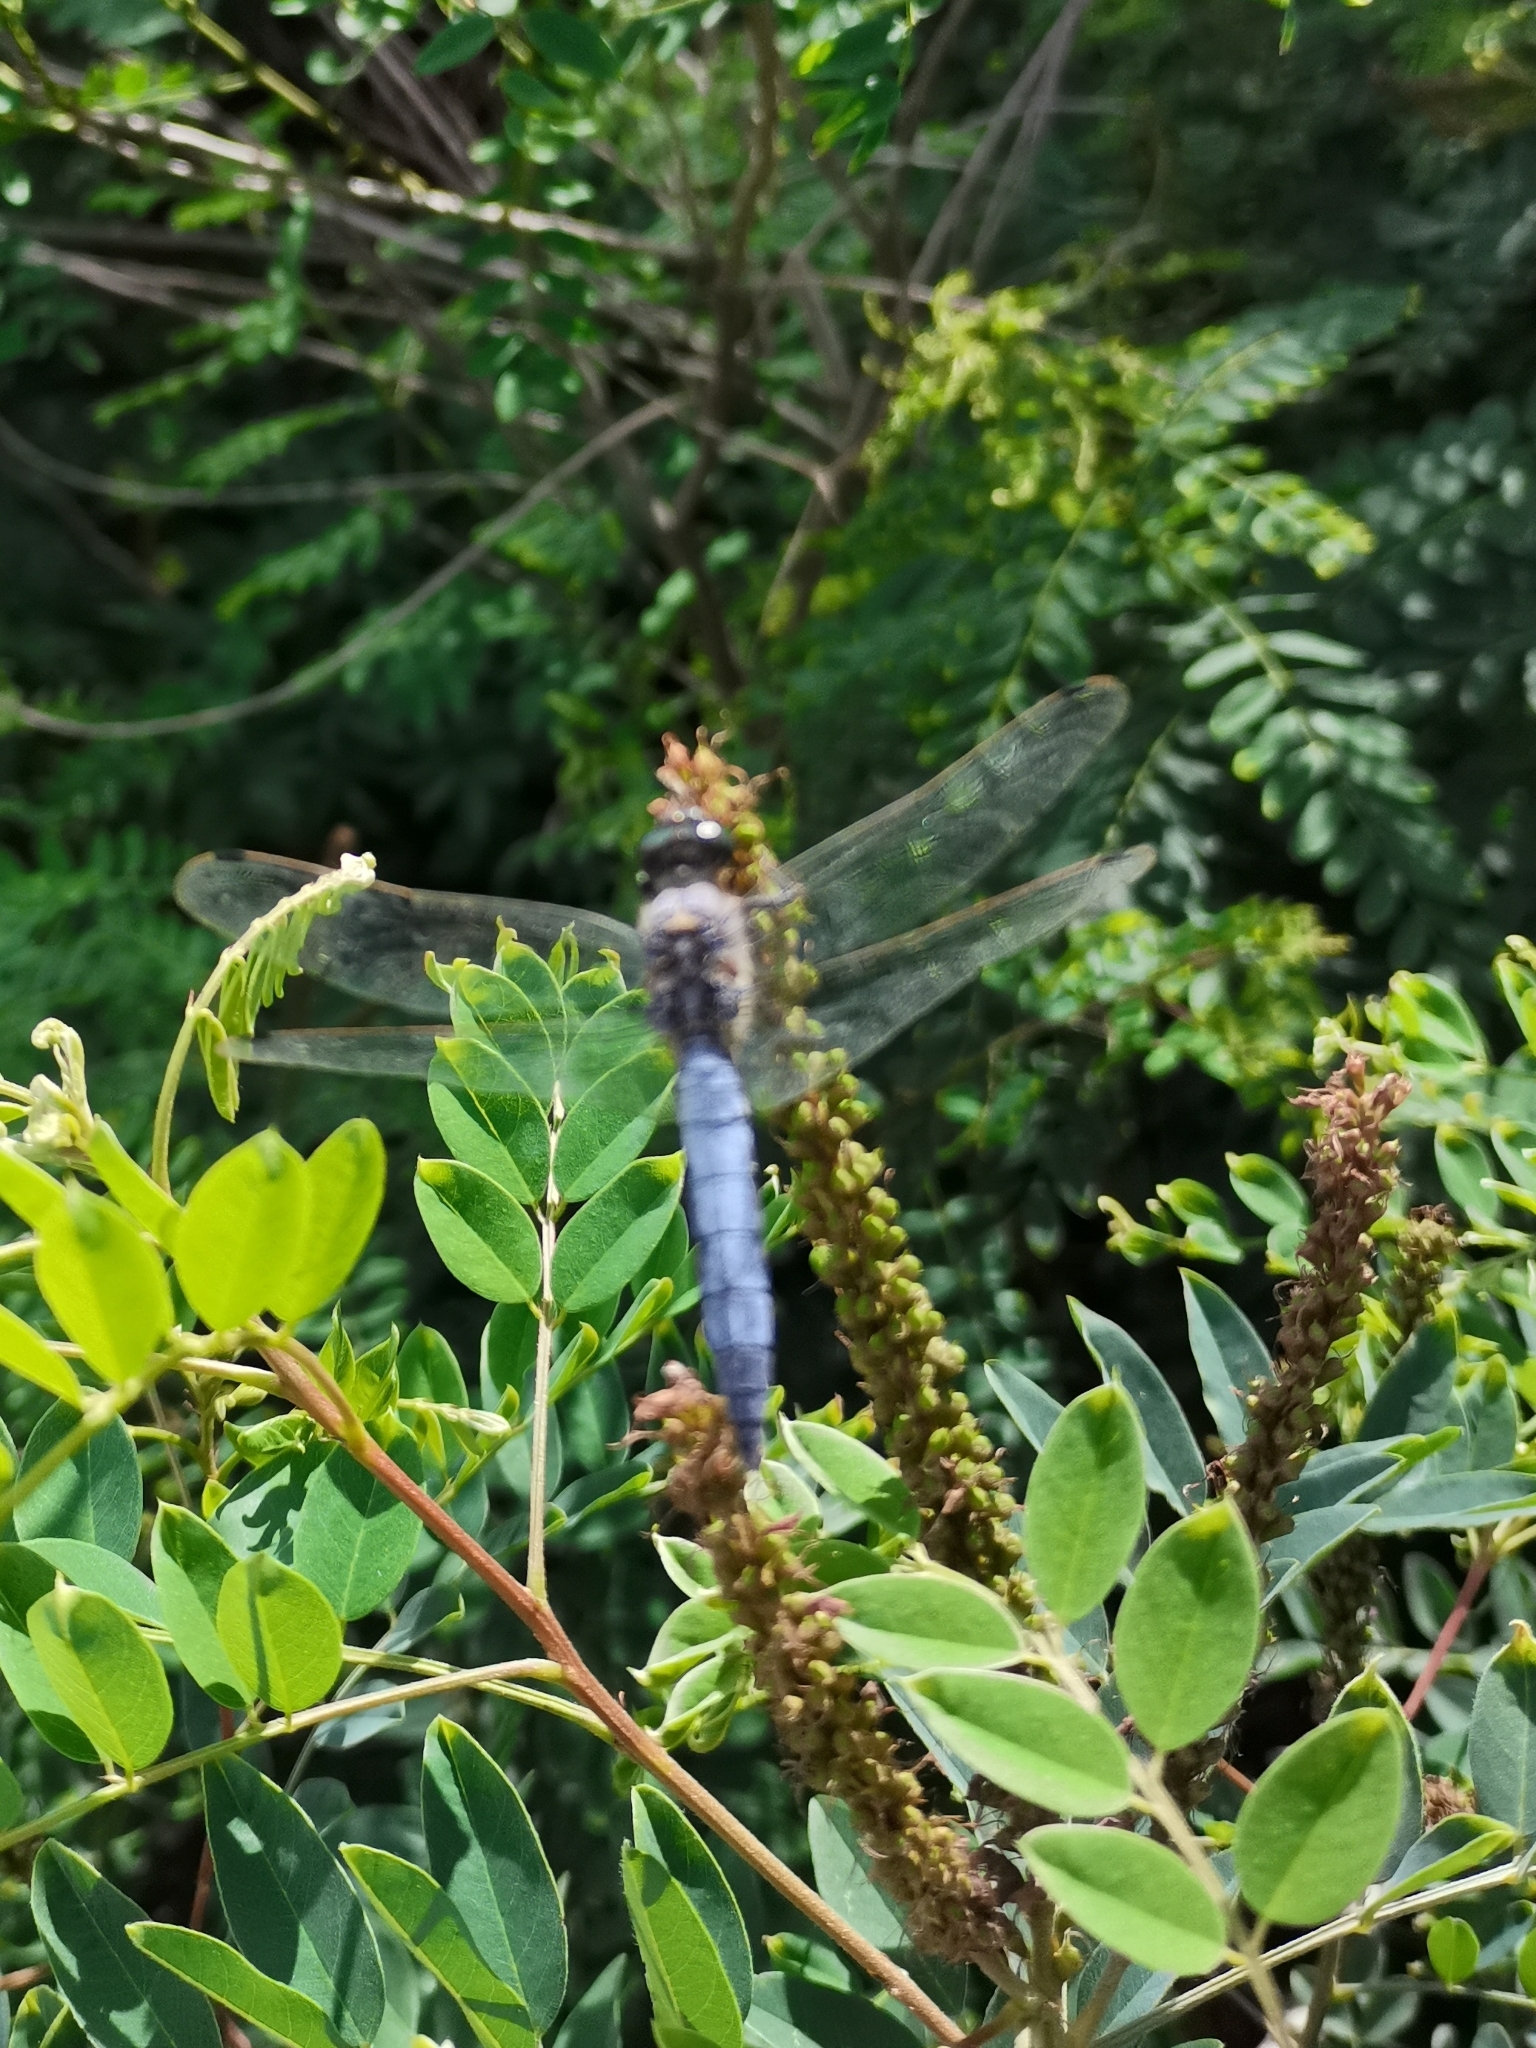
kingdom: Animalia
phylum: Arthropoda
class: Insecta
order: Odonata
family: Libellulidae
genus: Orthetrum
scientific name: Orthetrum cancellatum
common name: Black-tailed skimmer
